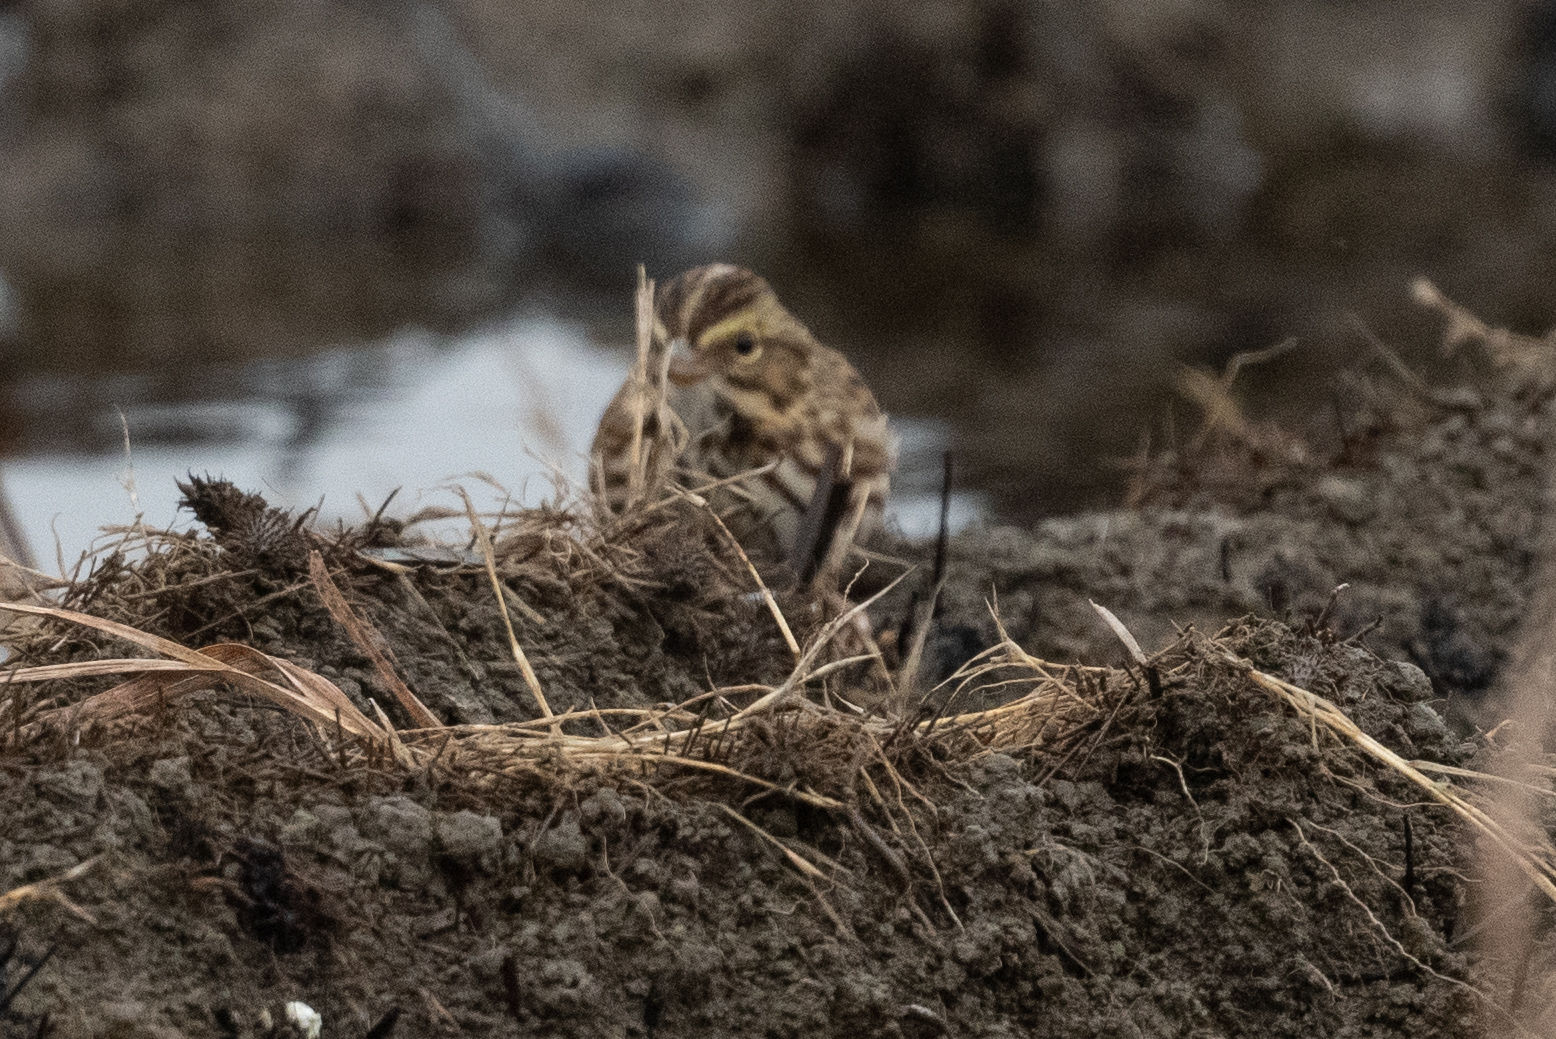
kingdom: Animalia
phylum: Chordata
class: Aves
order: Passeriformes
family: Passerellidae
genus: Passerculus
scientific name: Passerculus sandwichensis
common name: Savannah sparrow
